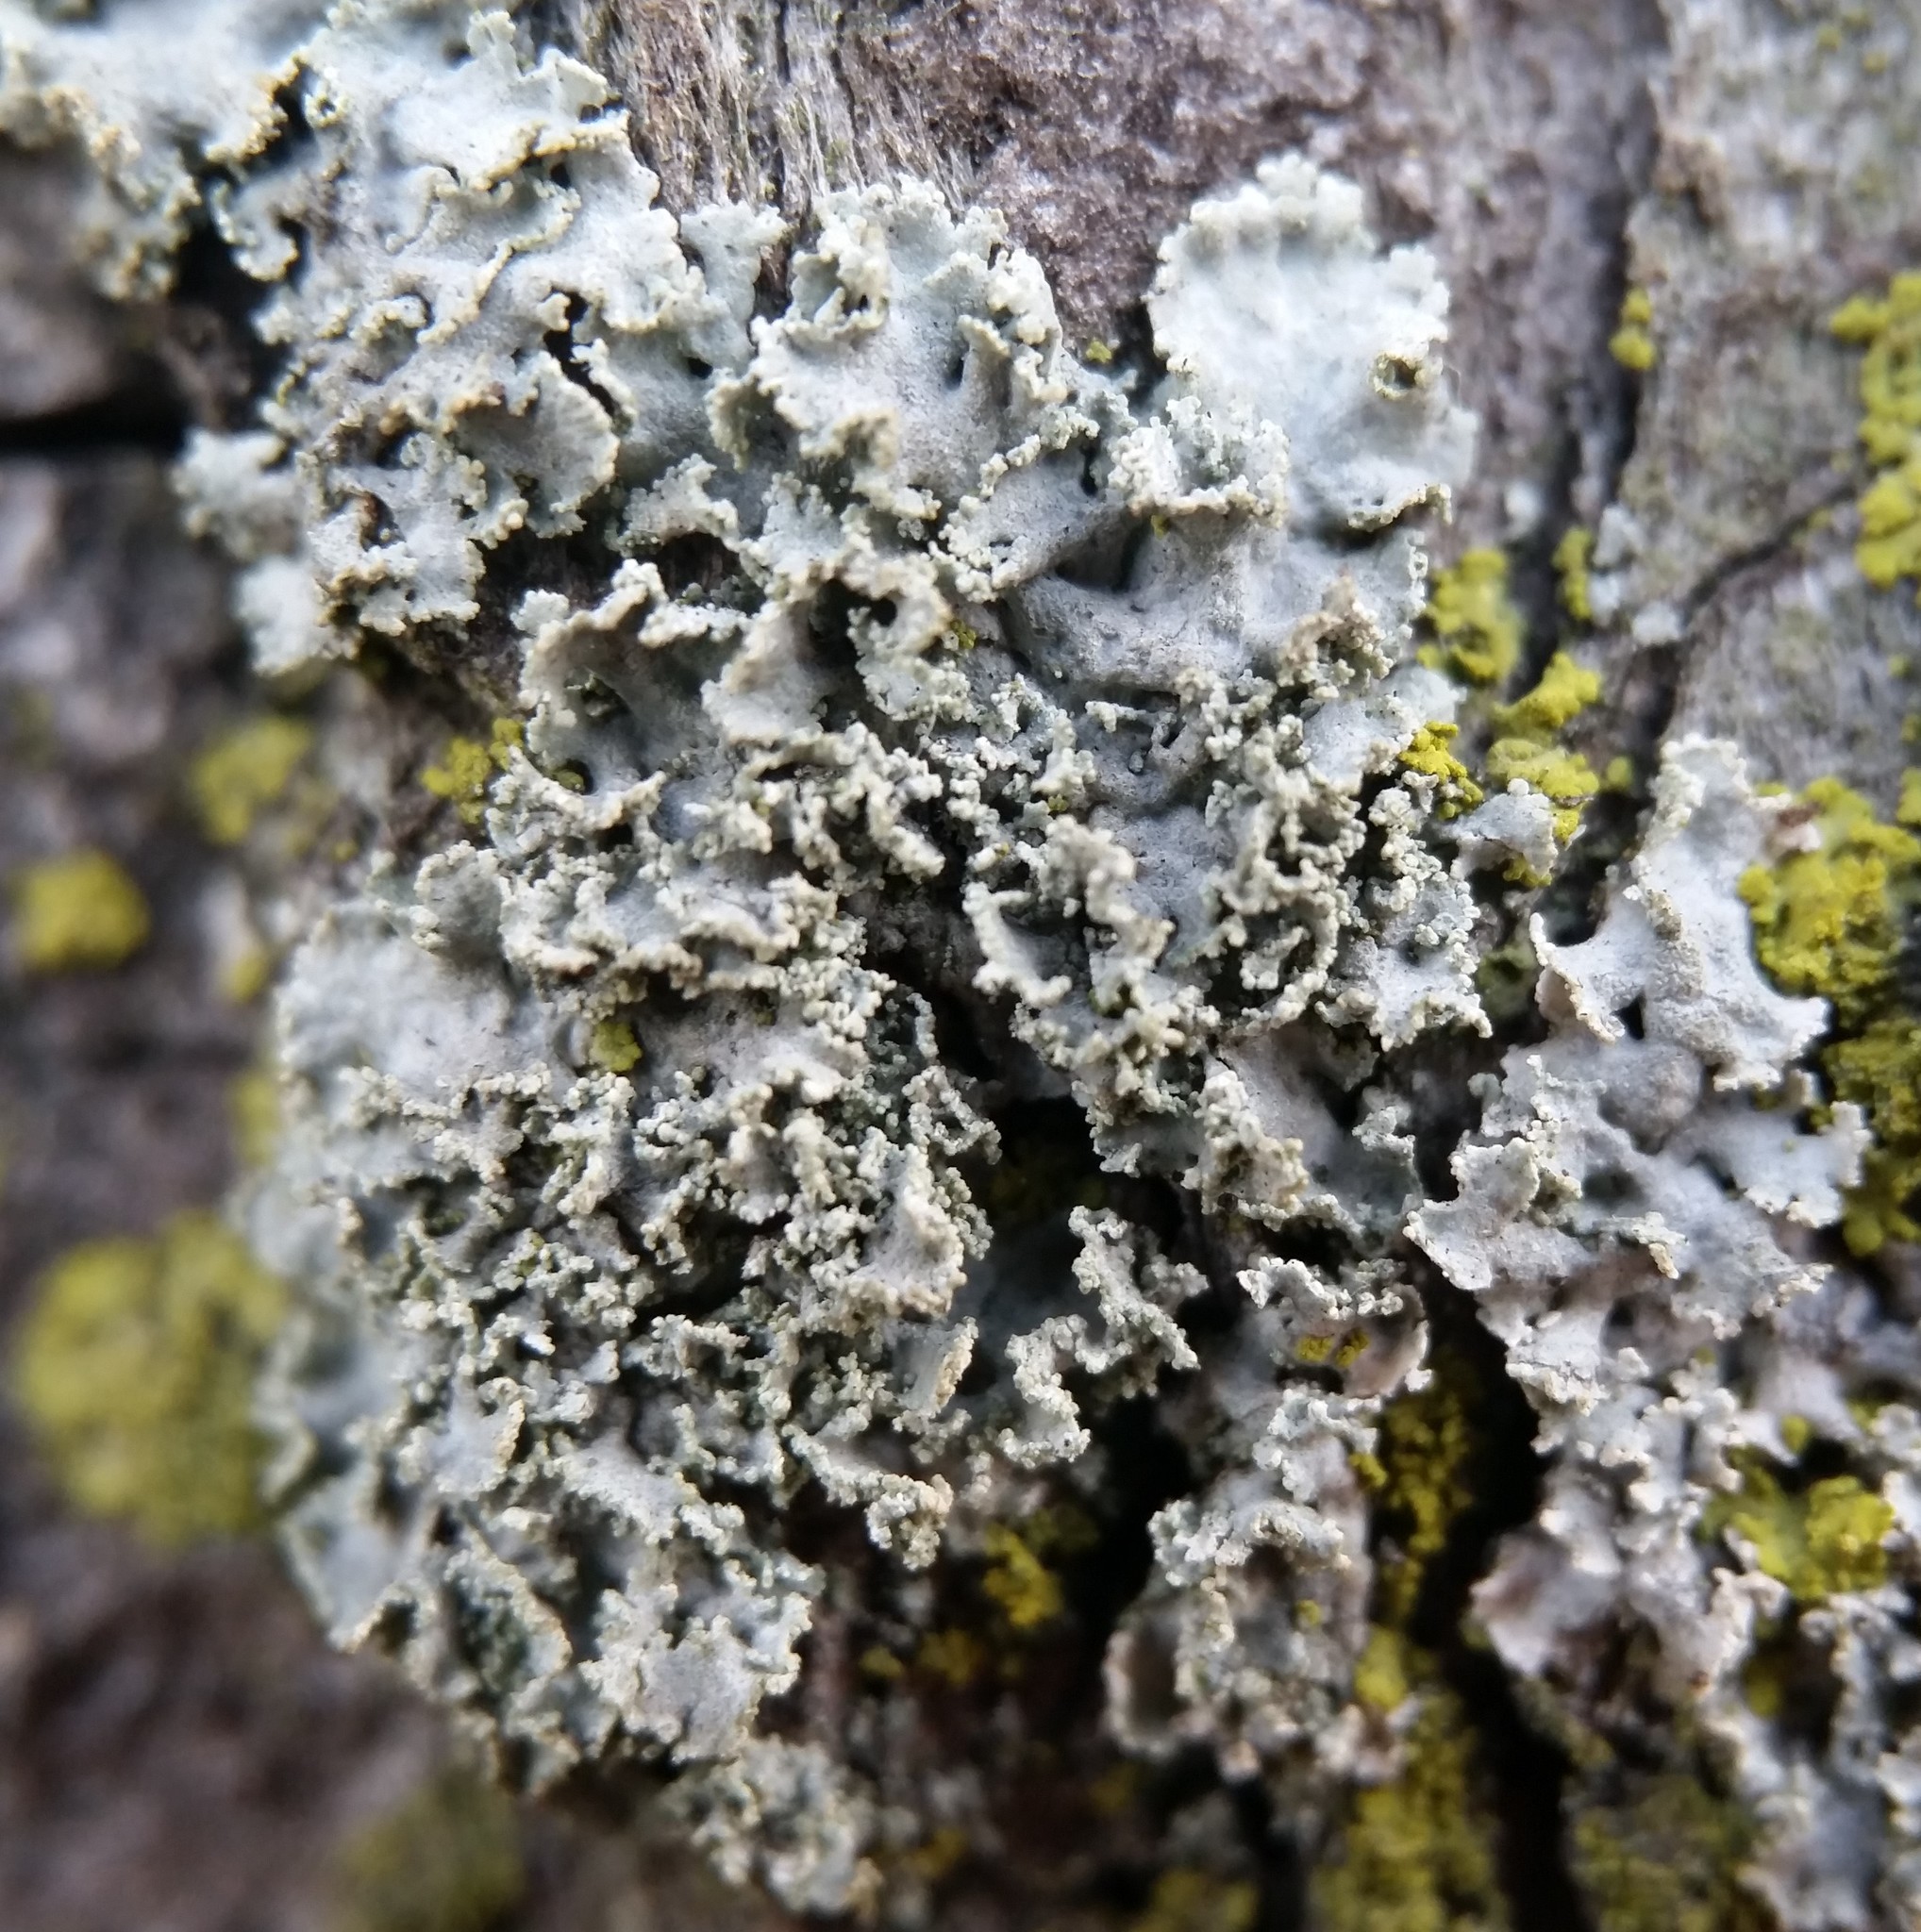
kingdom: Fungi
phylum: Ascomycota
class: Lecanoromycetes
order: Caliciales
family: Physciaceae
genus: Physcia
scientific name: Physcia millegrana
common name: Rosette lichen
